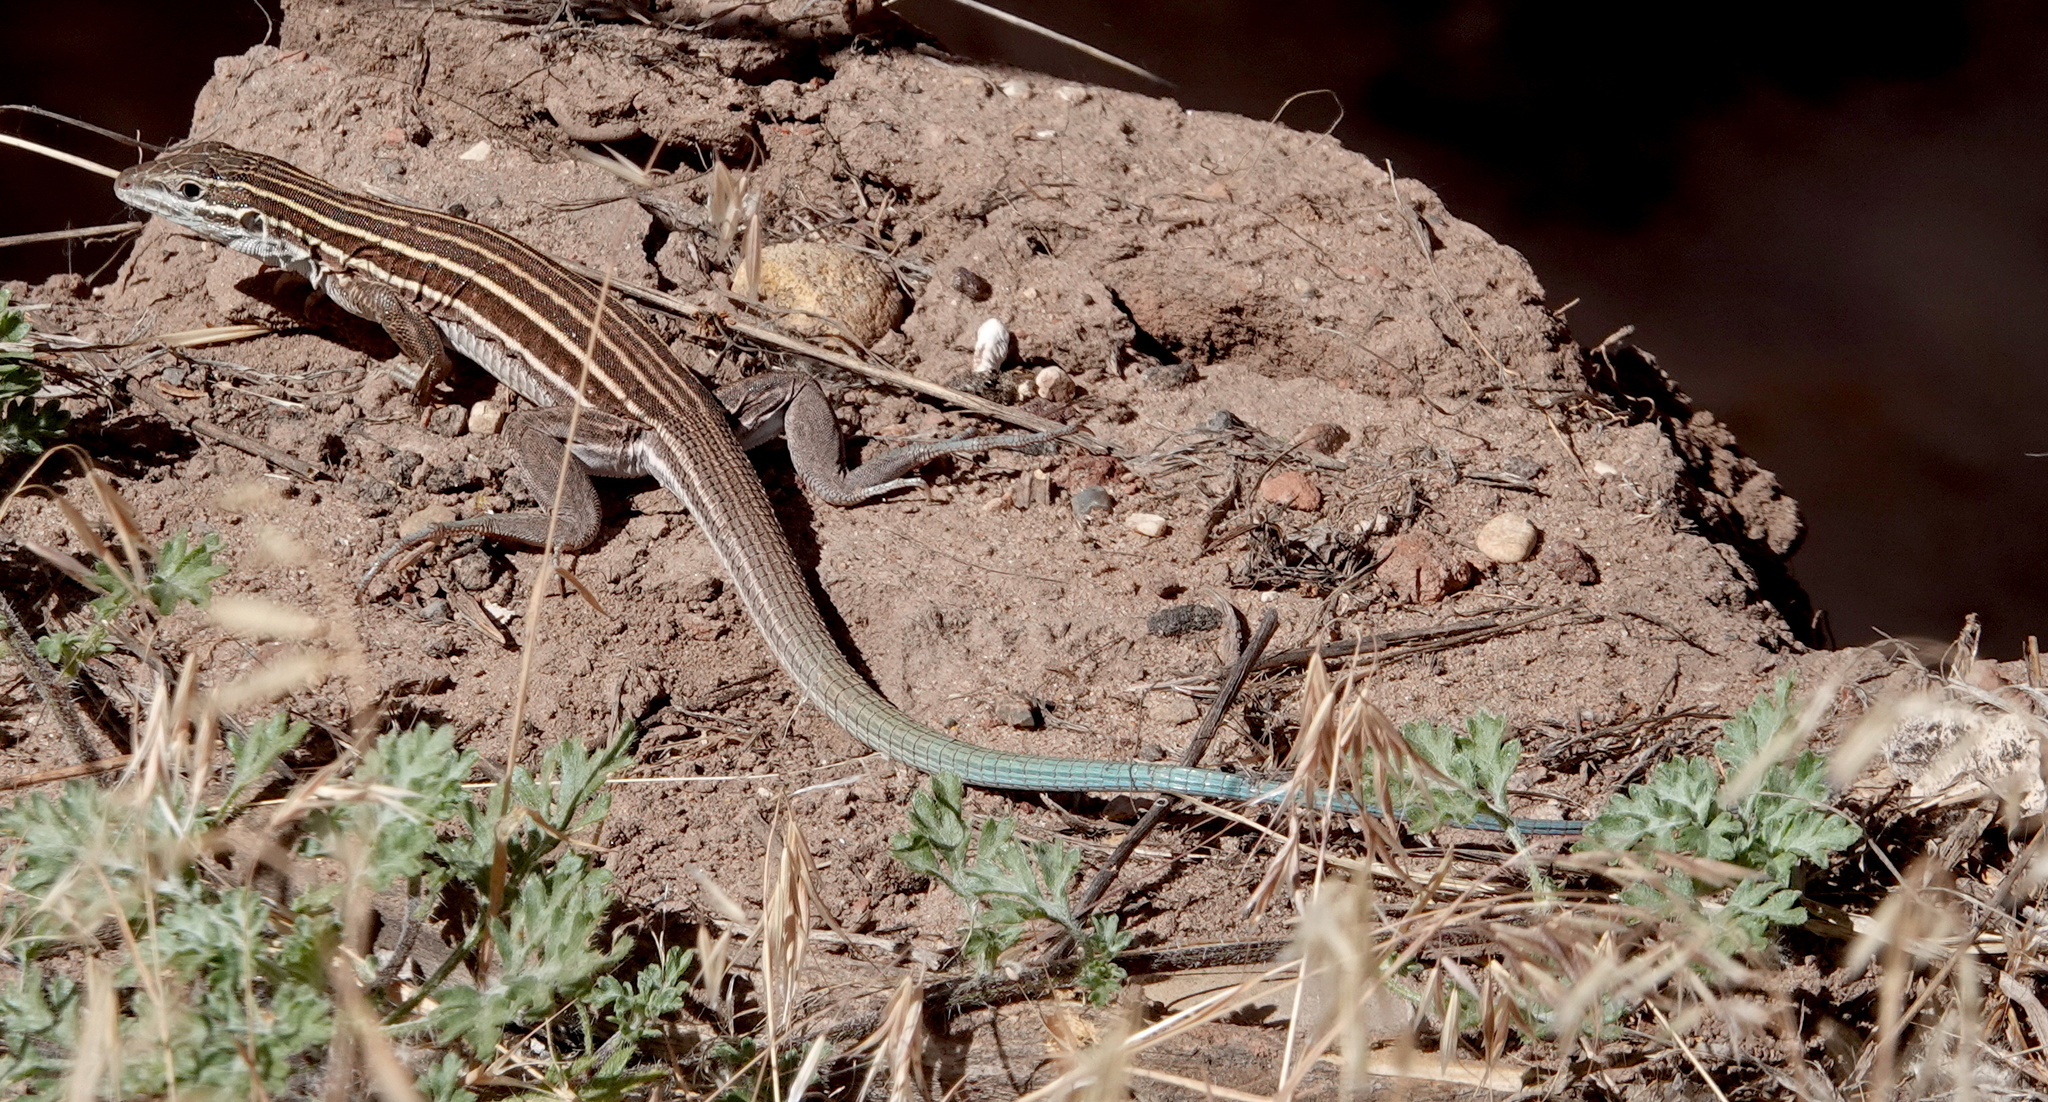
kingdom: Animalia
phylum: Chordata
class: Squamata
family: Teiidae
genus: Aspidoscelis
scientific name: Aspidoscelis velox
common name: Plateau striped whiptail
